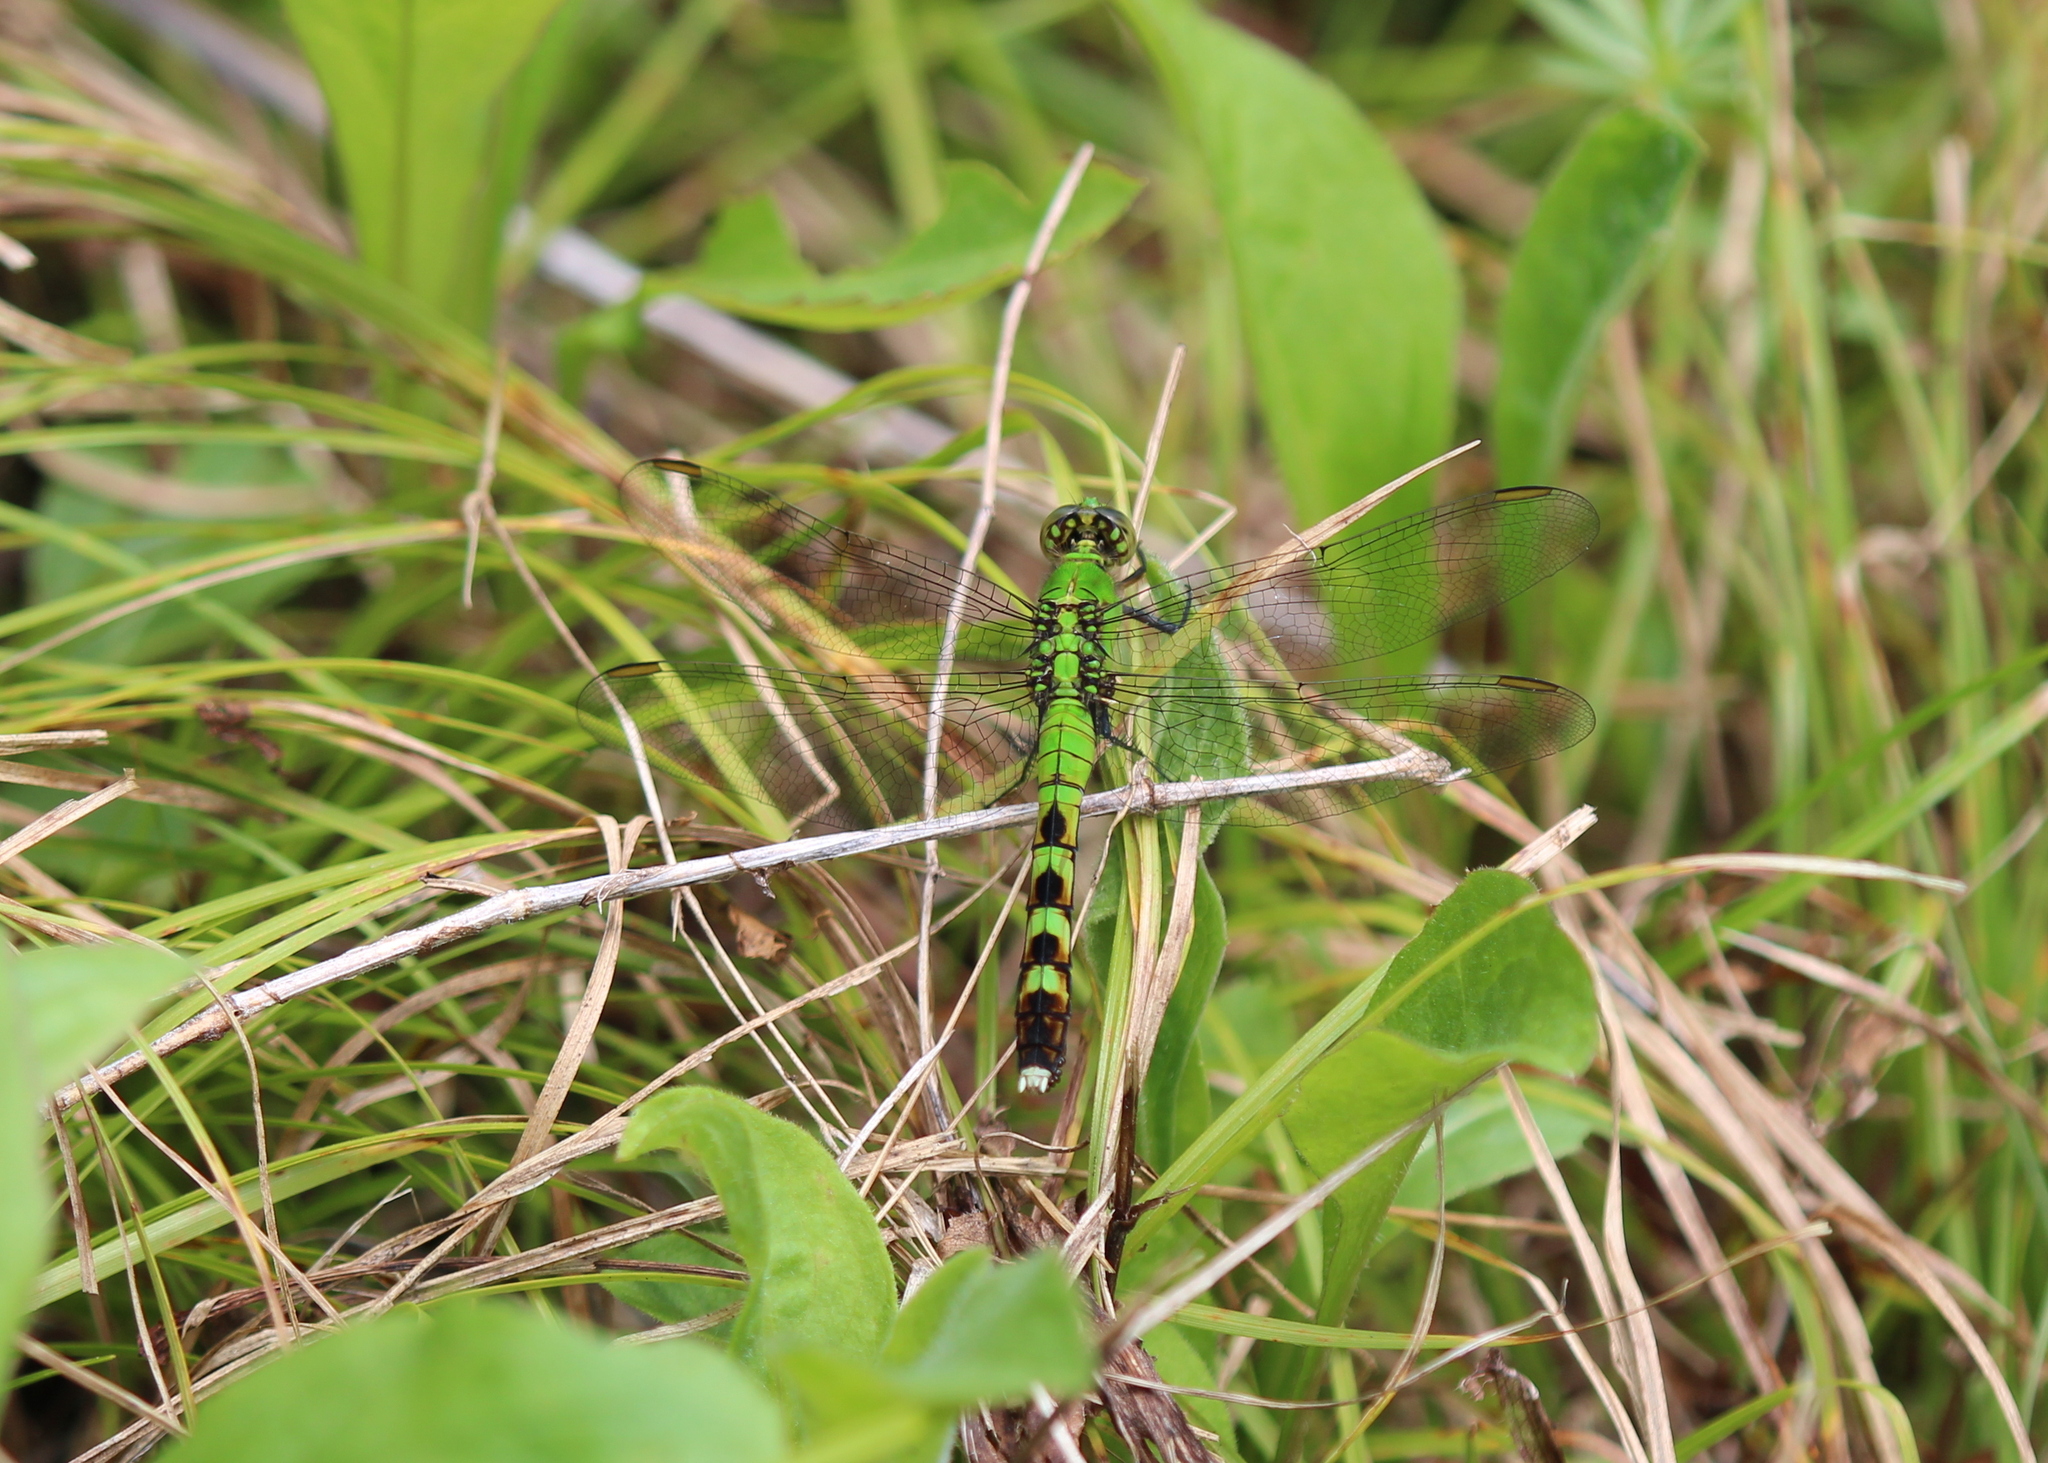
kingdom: Animalia
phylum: Arthropoda
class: Insecta
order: Odonata
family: Libellulidae
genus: Erythemis
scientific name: Erythemis simplicicollis
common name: Eastern pondhawk
